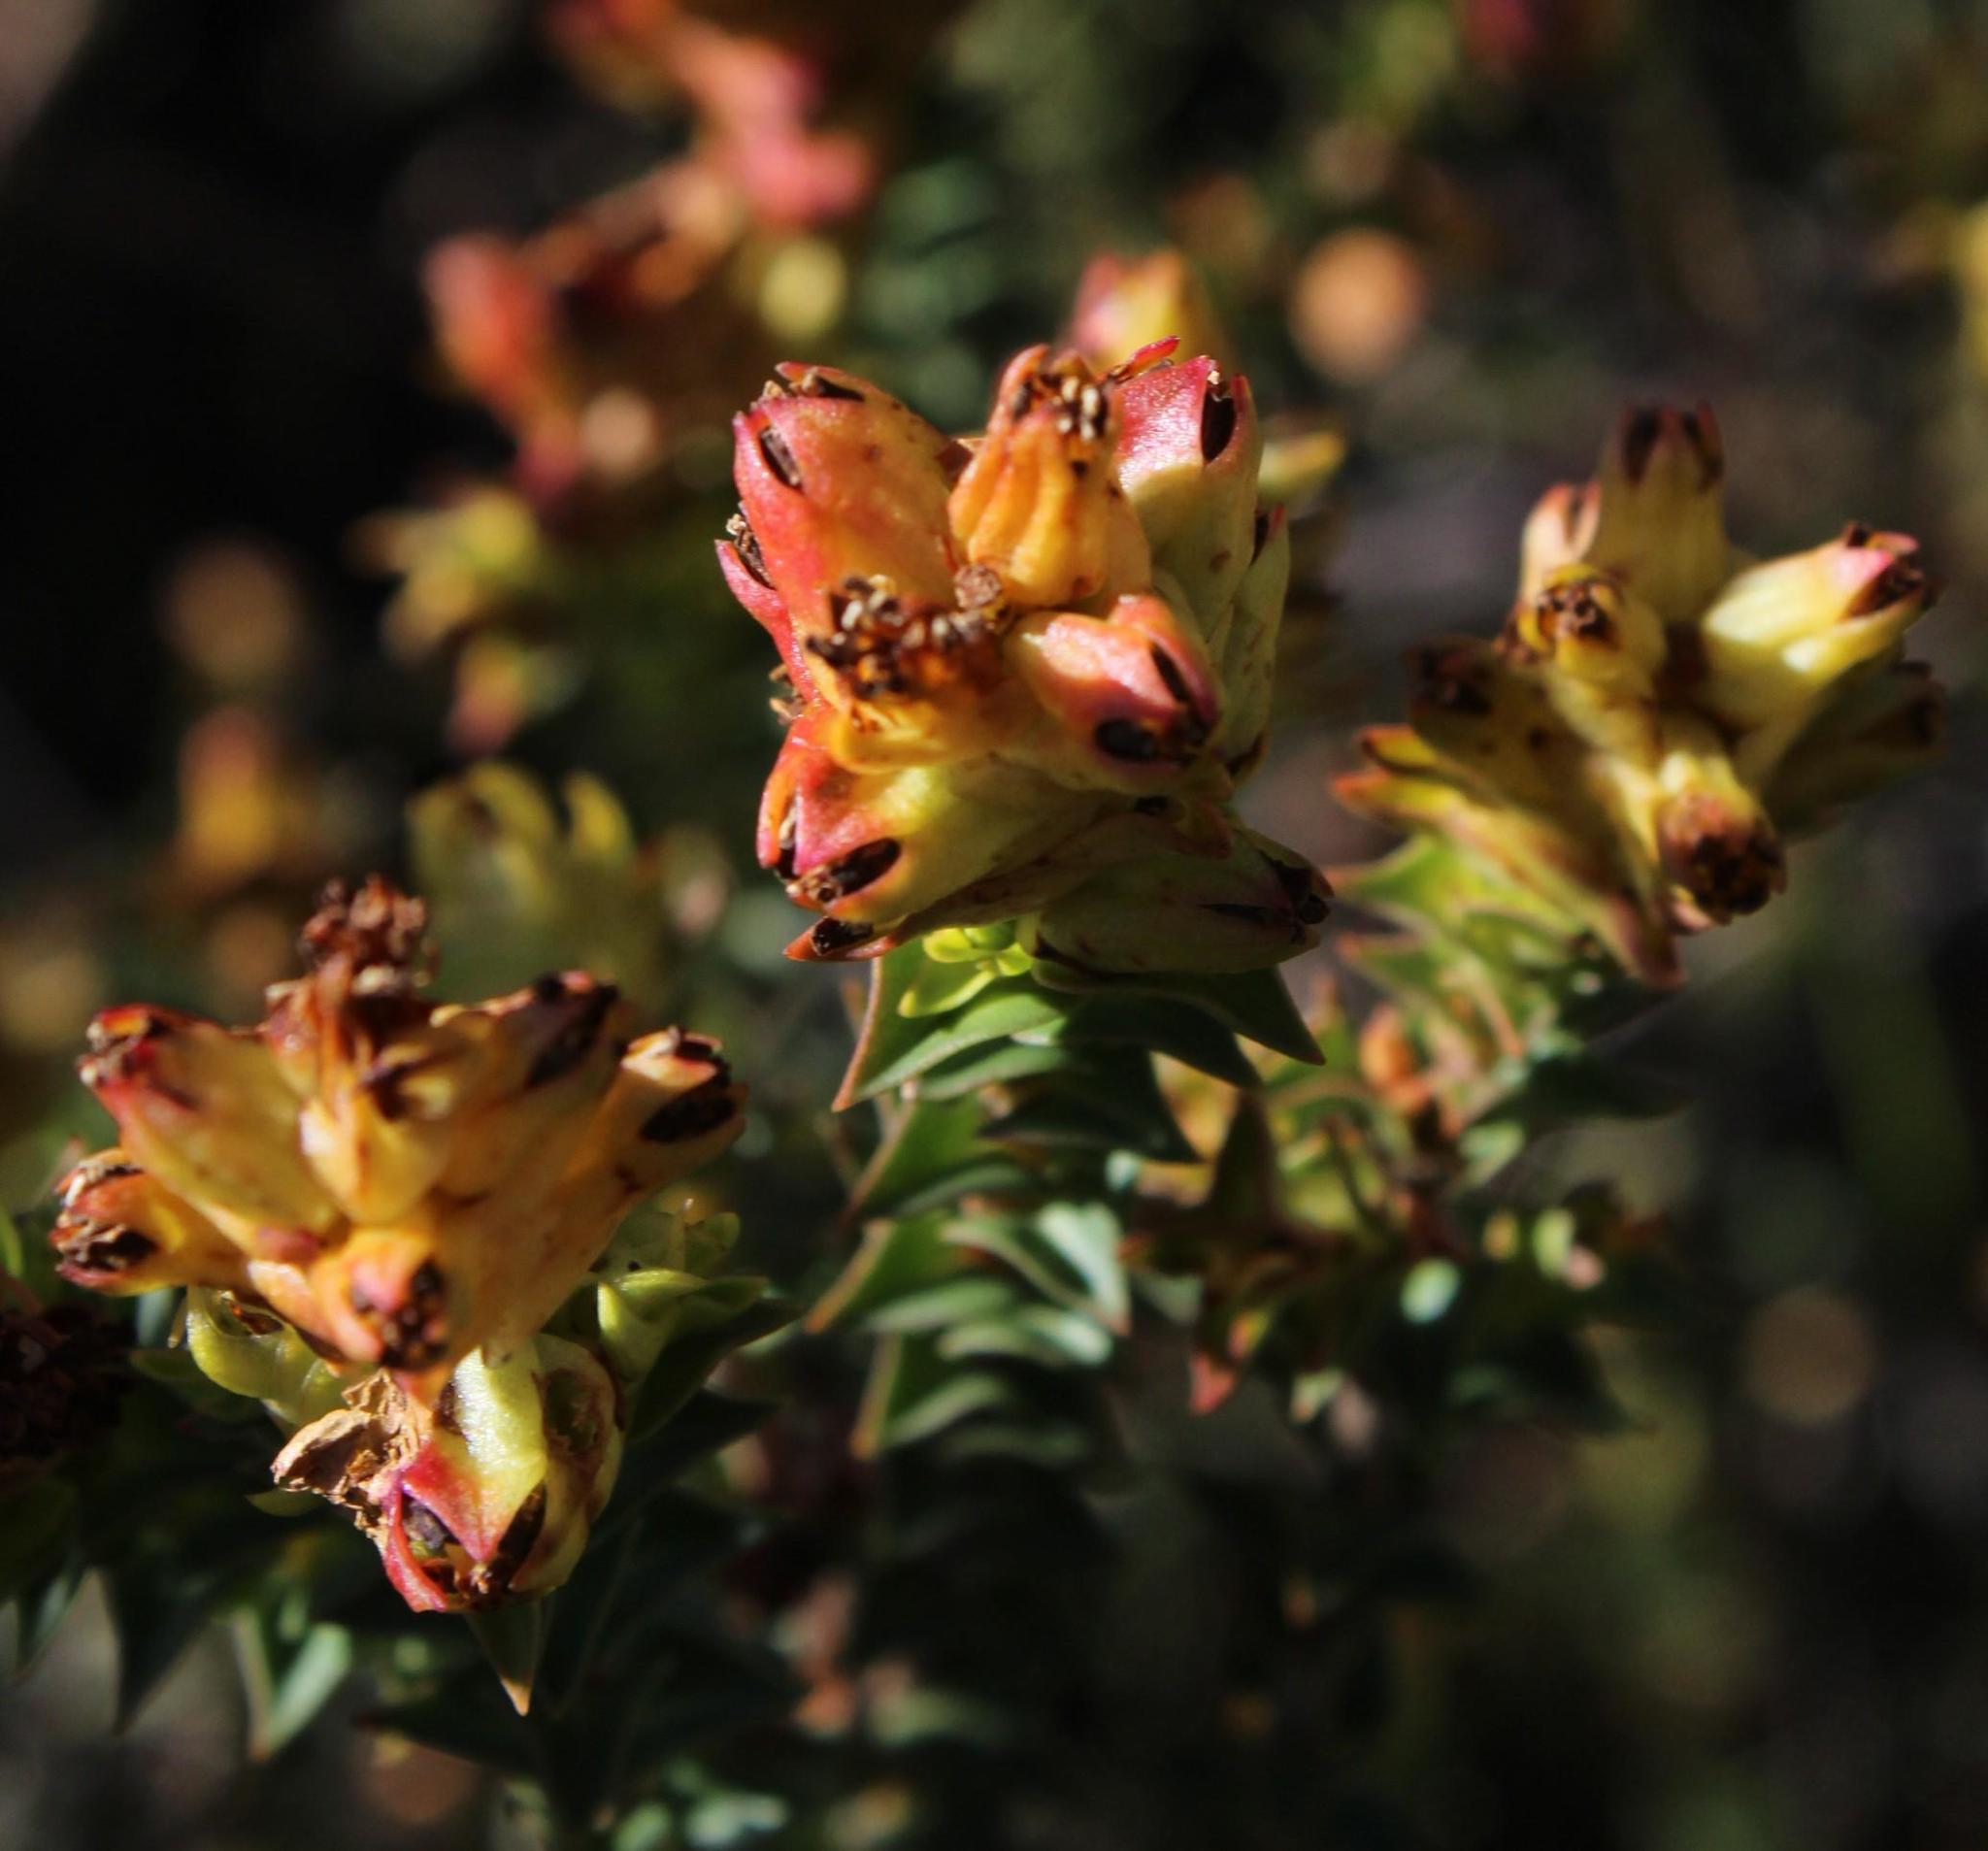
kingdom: Plantae
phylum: Tracheophyta
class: Magnoliopsida
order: Myrtales
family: Penaeaceae
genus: Penaea
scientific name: Penaea mucronata
